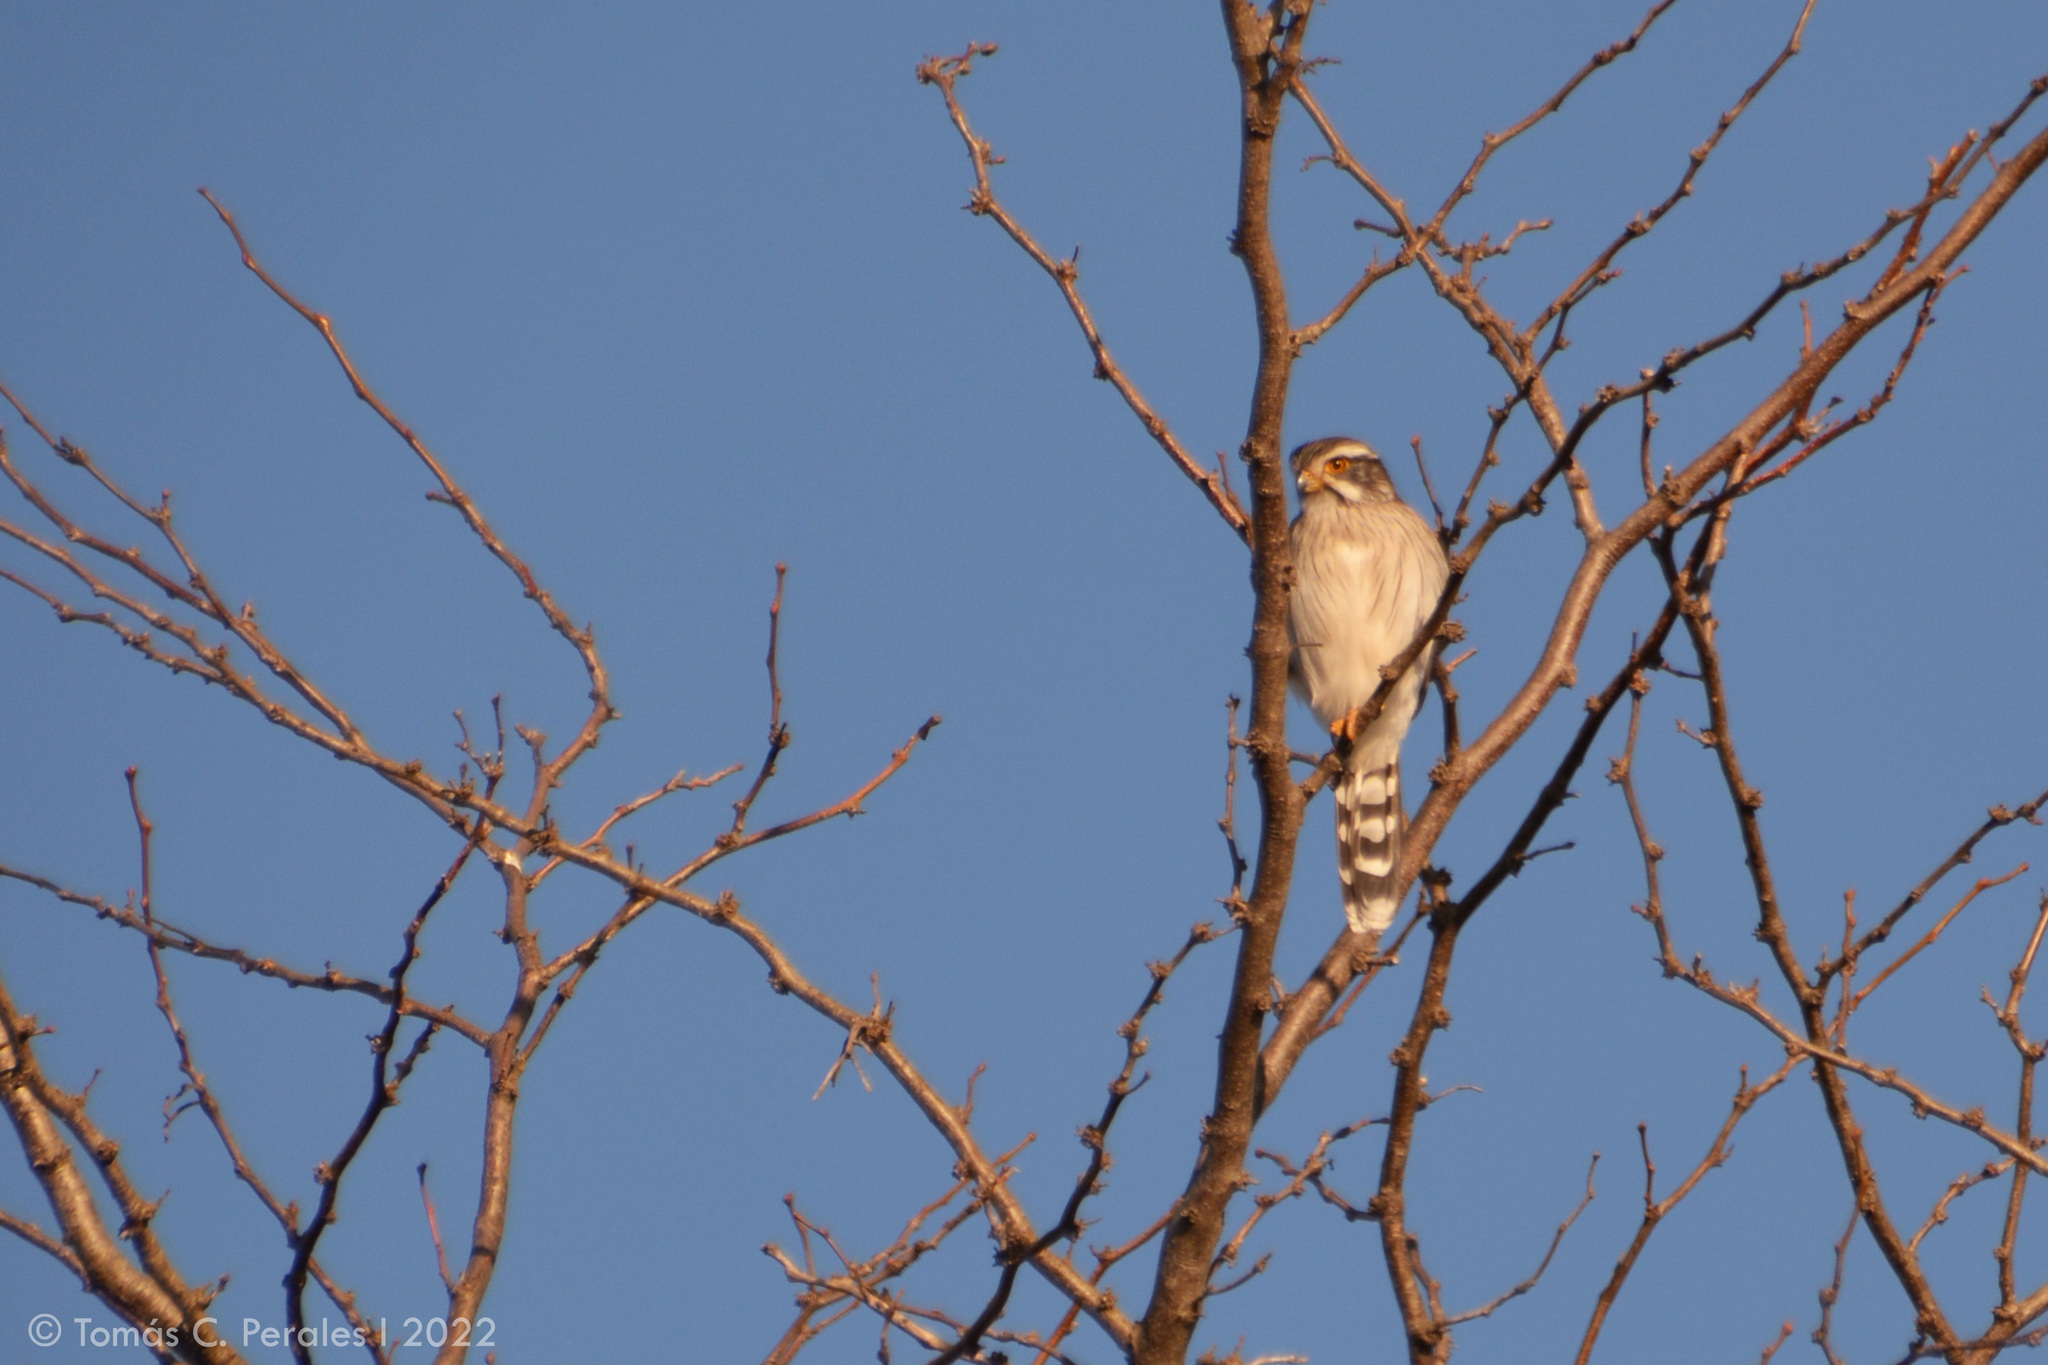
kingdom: Animalia
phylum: Chordata
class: Aves
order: Falconiformes
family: Falconidae
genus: Spiziapteryx
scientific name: Spiziapteryx circumcincta
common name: Spot-winged falconet
